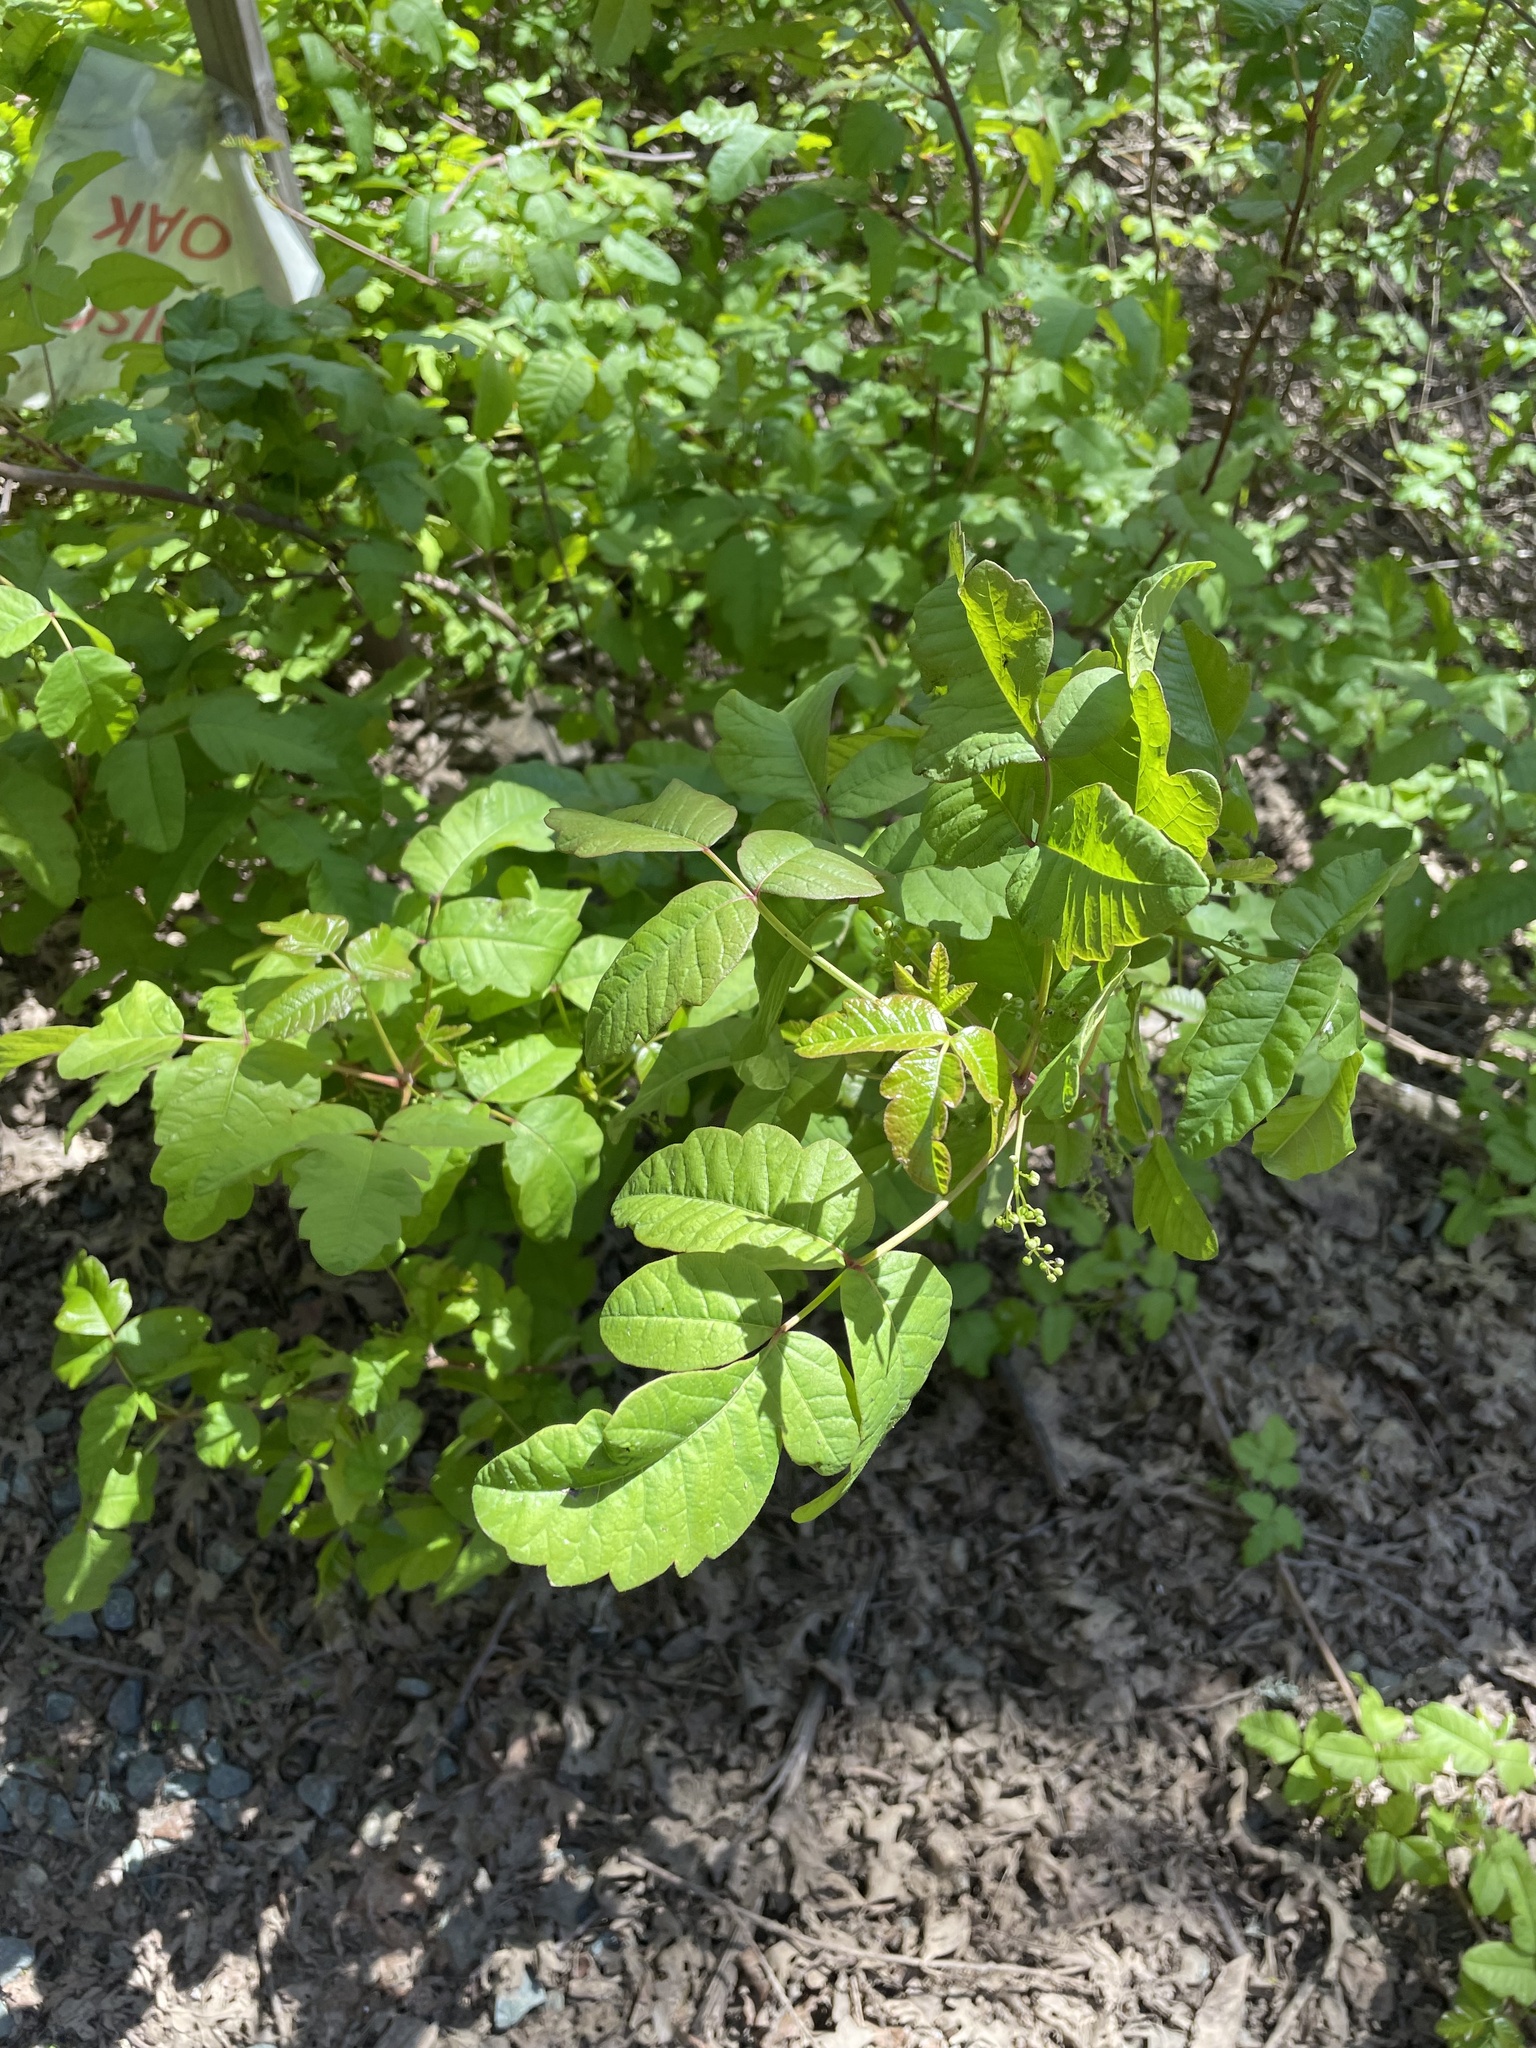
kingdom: Plantae
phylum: Tracheophyta
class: Magnoliopsida
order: Sapindales
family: Anacardiaceae
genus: Toxicodendron
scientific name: Toxicodendron diversilobum
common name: Pacific poison-oak
